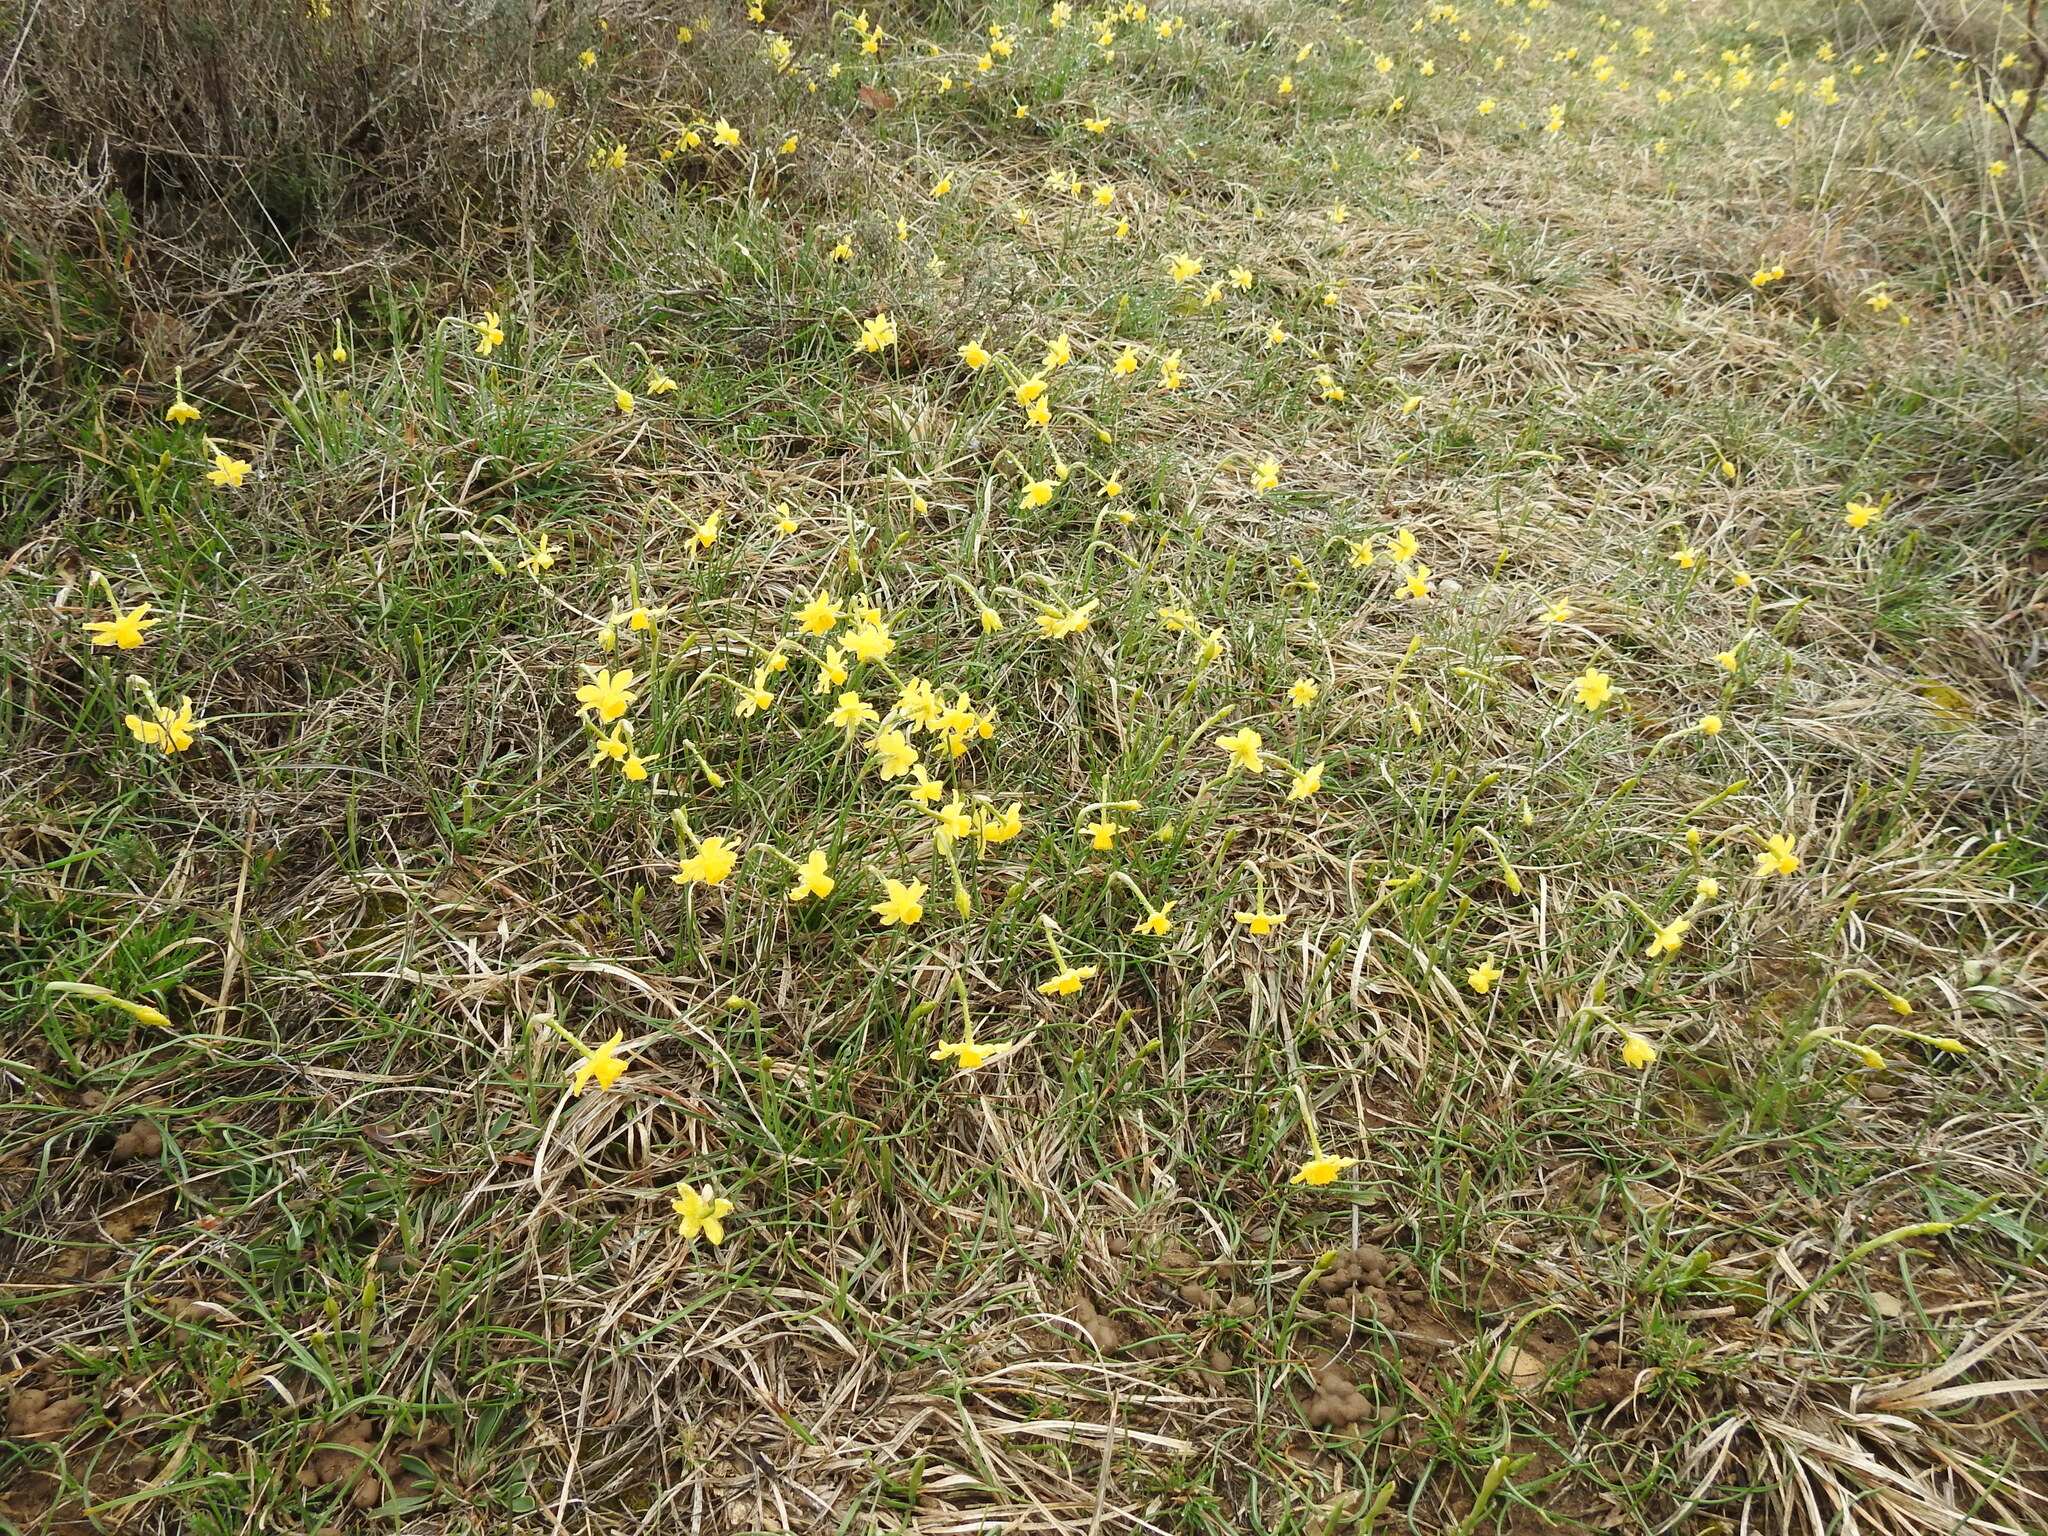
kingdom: Plantae
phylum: Tracheophyta
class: Liliopsida
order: Asparagales
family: Amaryllidaceae
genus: Narcissus
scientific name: Narcissus assoanus
